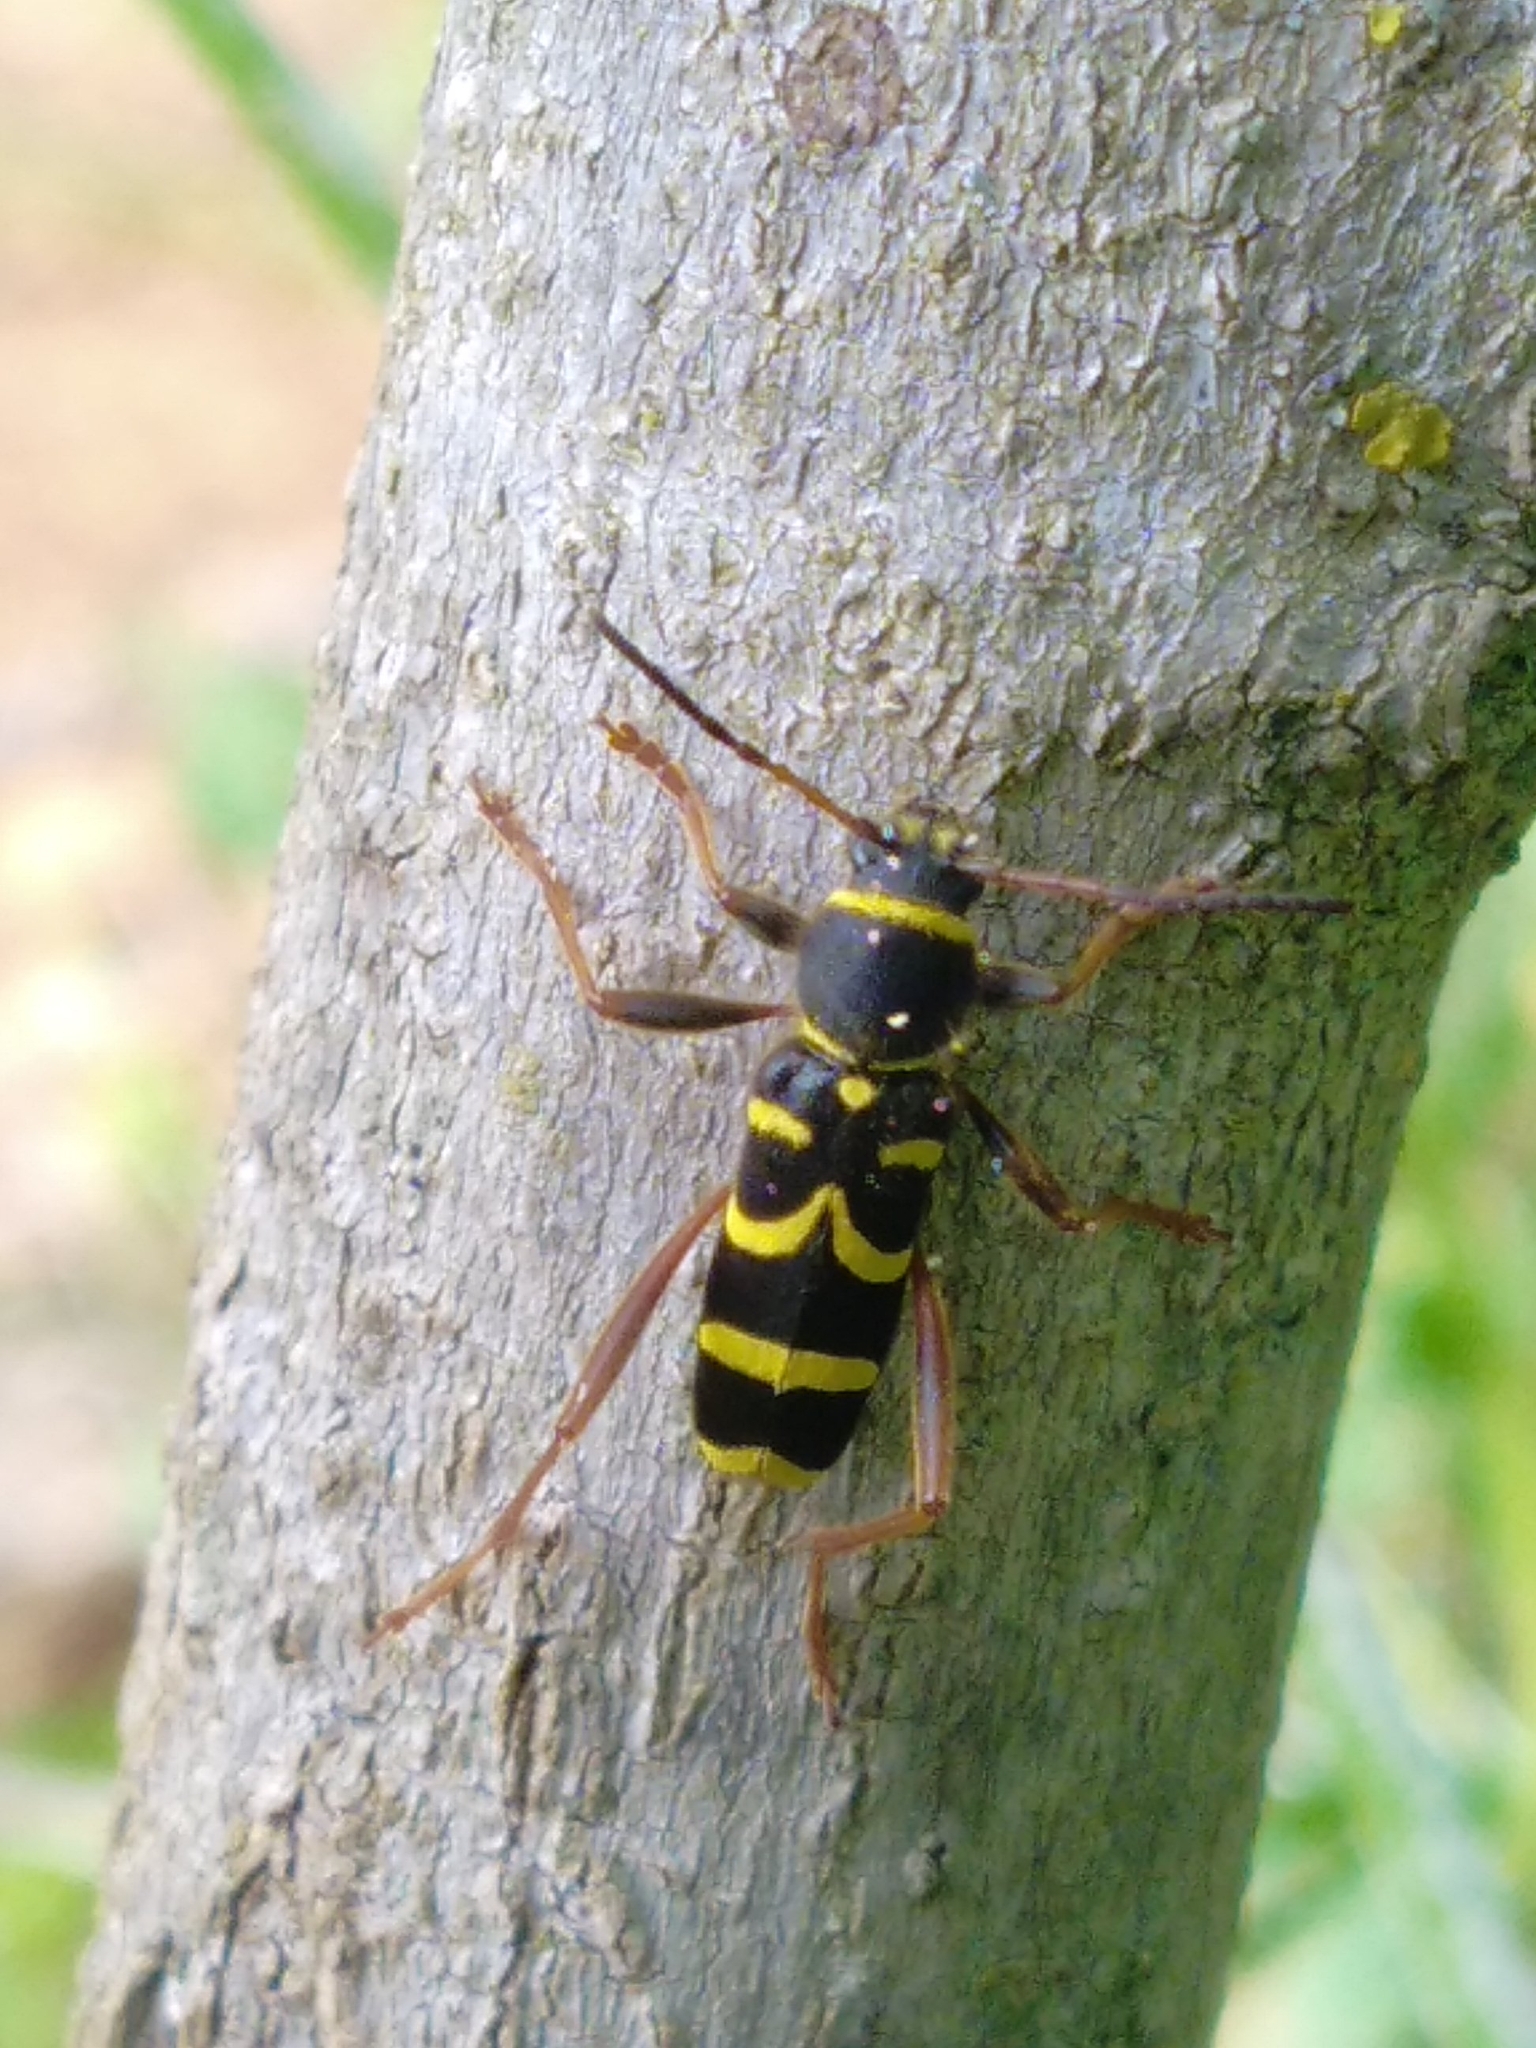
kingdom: Animalia
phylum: Arthropoda
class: Insecta
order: Coleoptera
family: Cerambycidae
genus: Clytus
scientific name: Clytus arietis
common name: Wasp beetle
